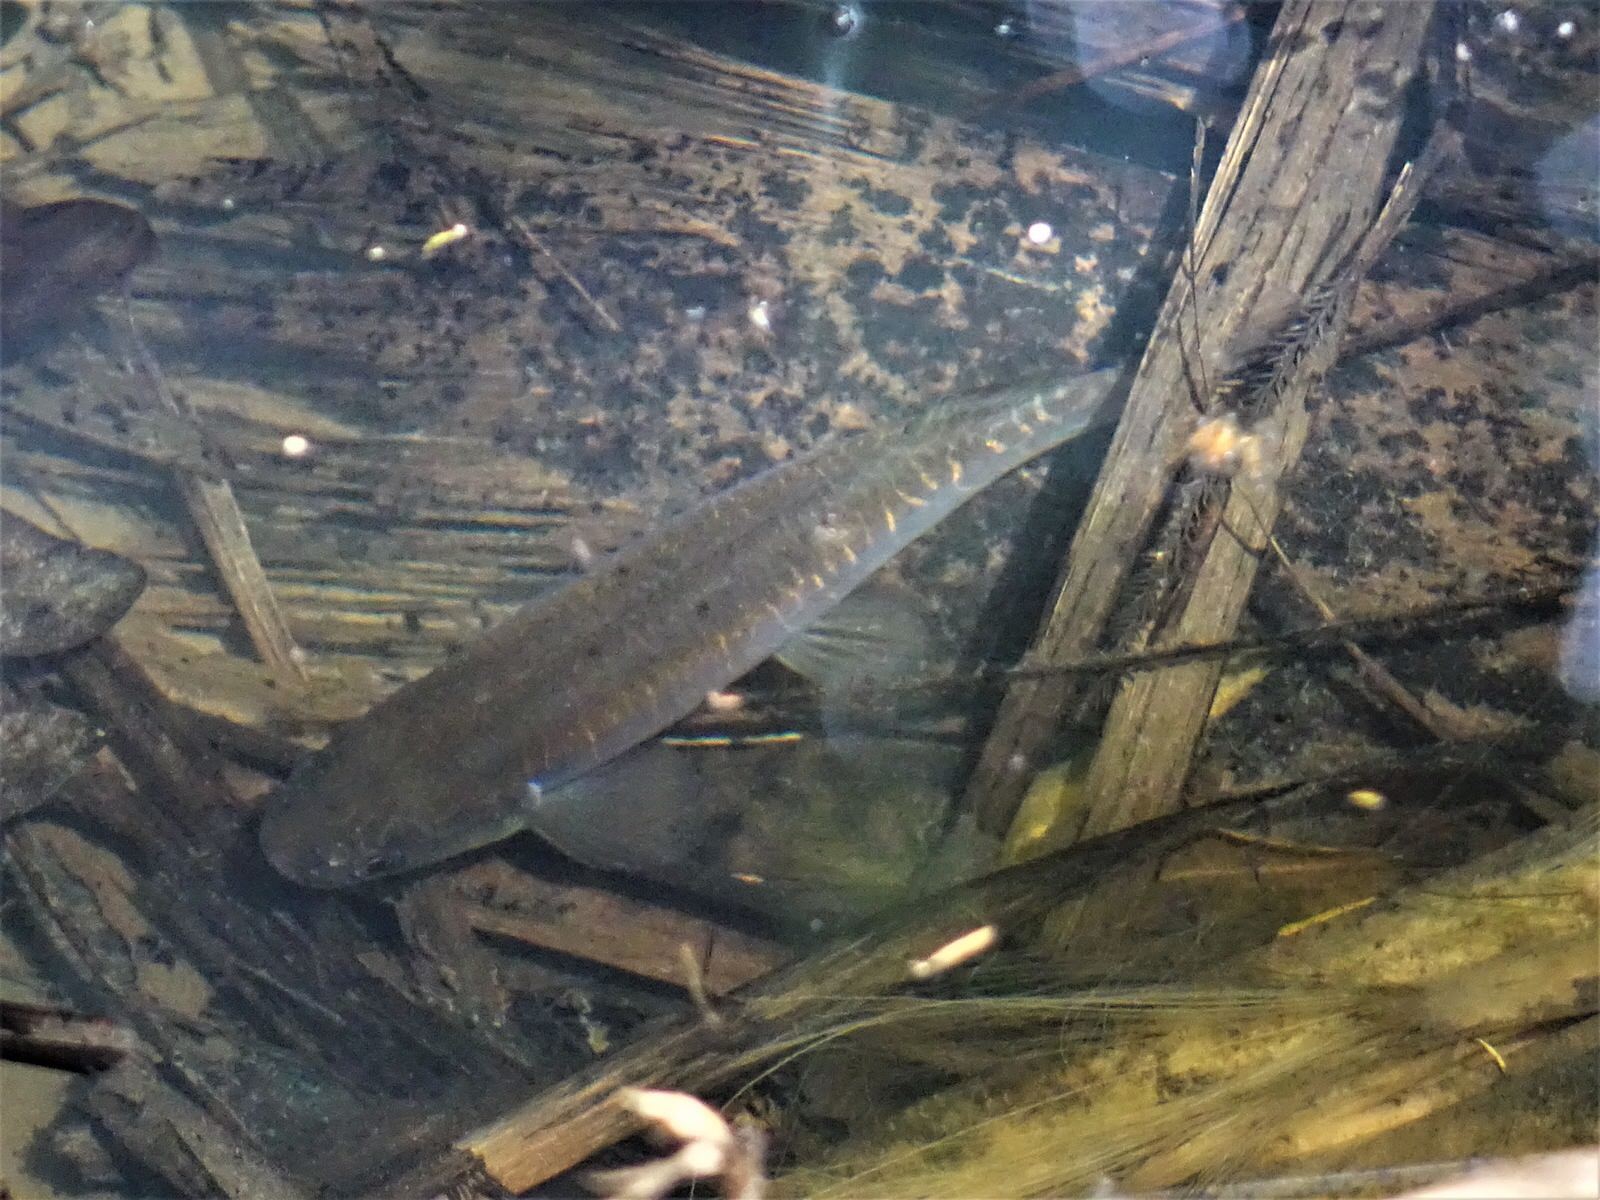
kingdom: Animalia
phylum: Chordata
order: Osmeriformes
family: Galaxiidae
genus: Galaxias
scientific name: Galaxias fasciatus
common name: Banded kokopu
